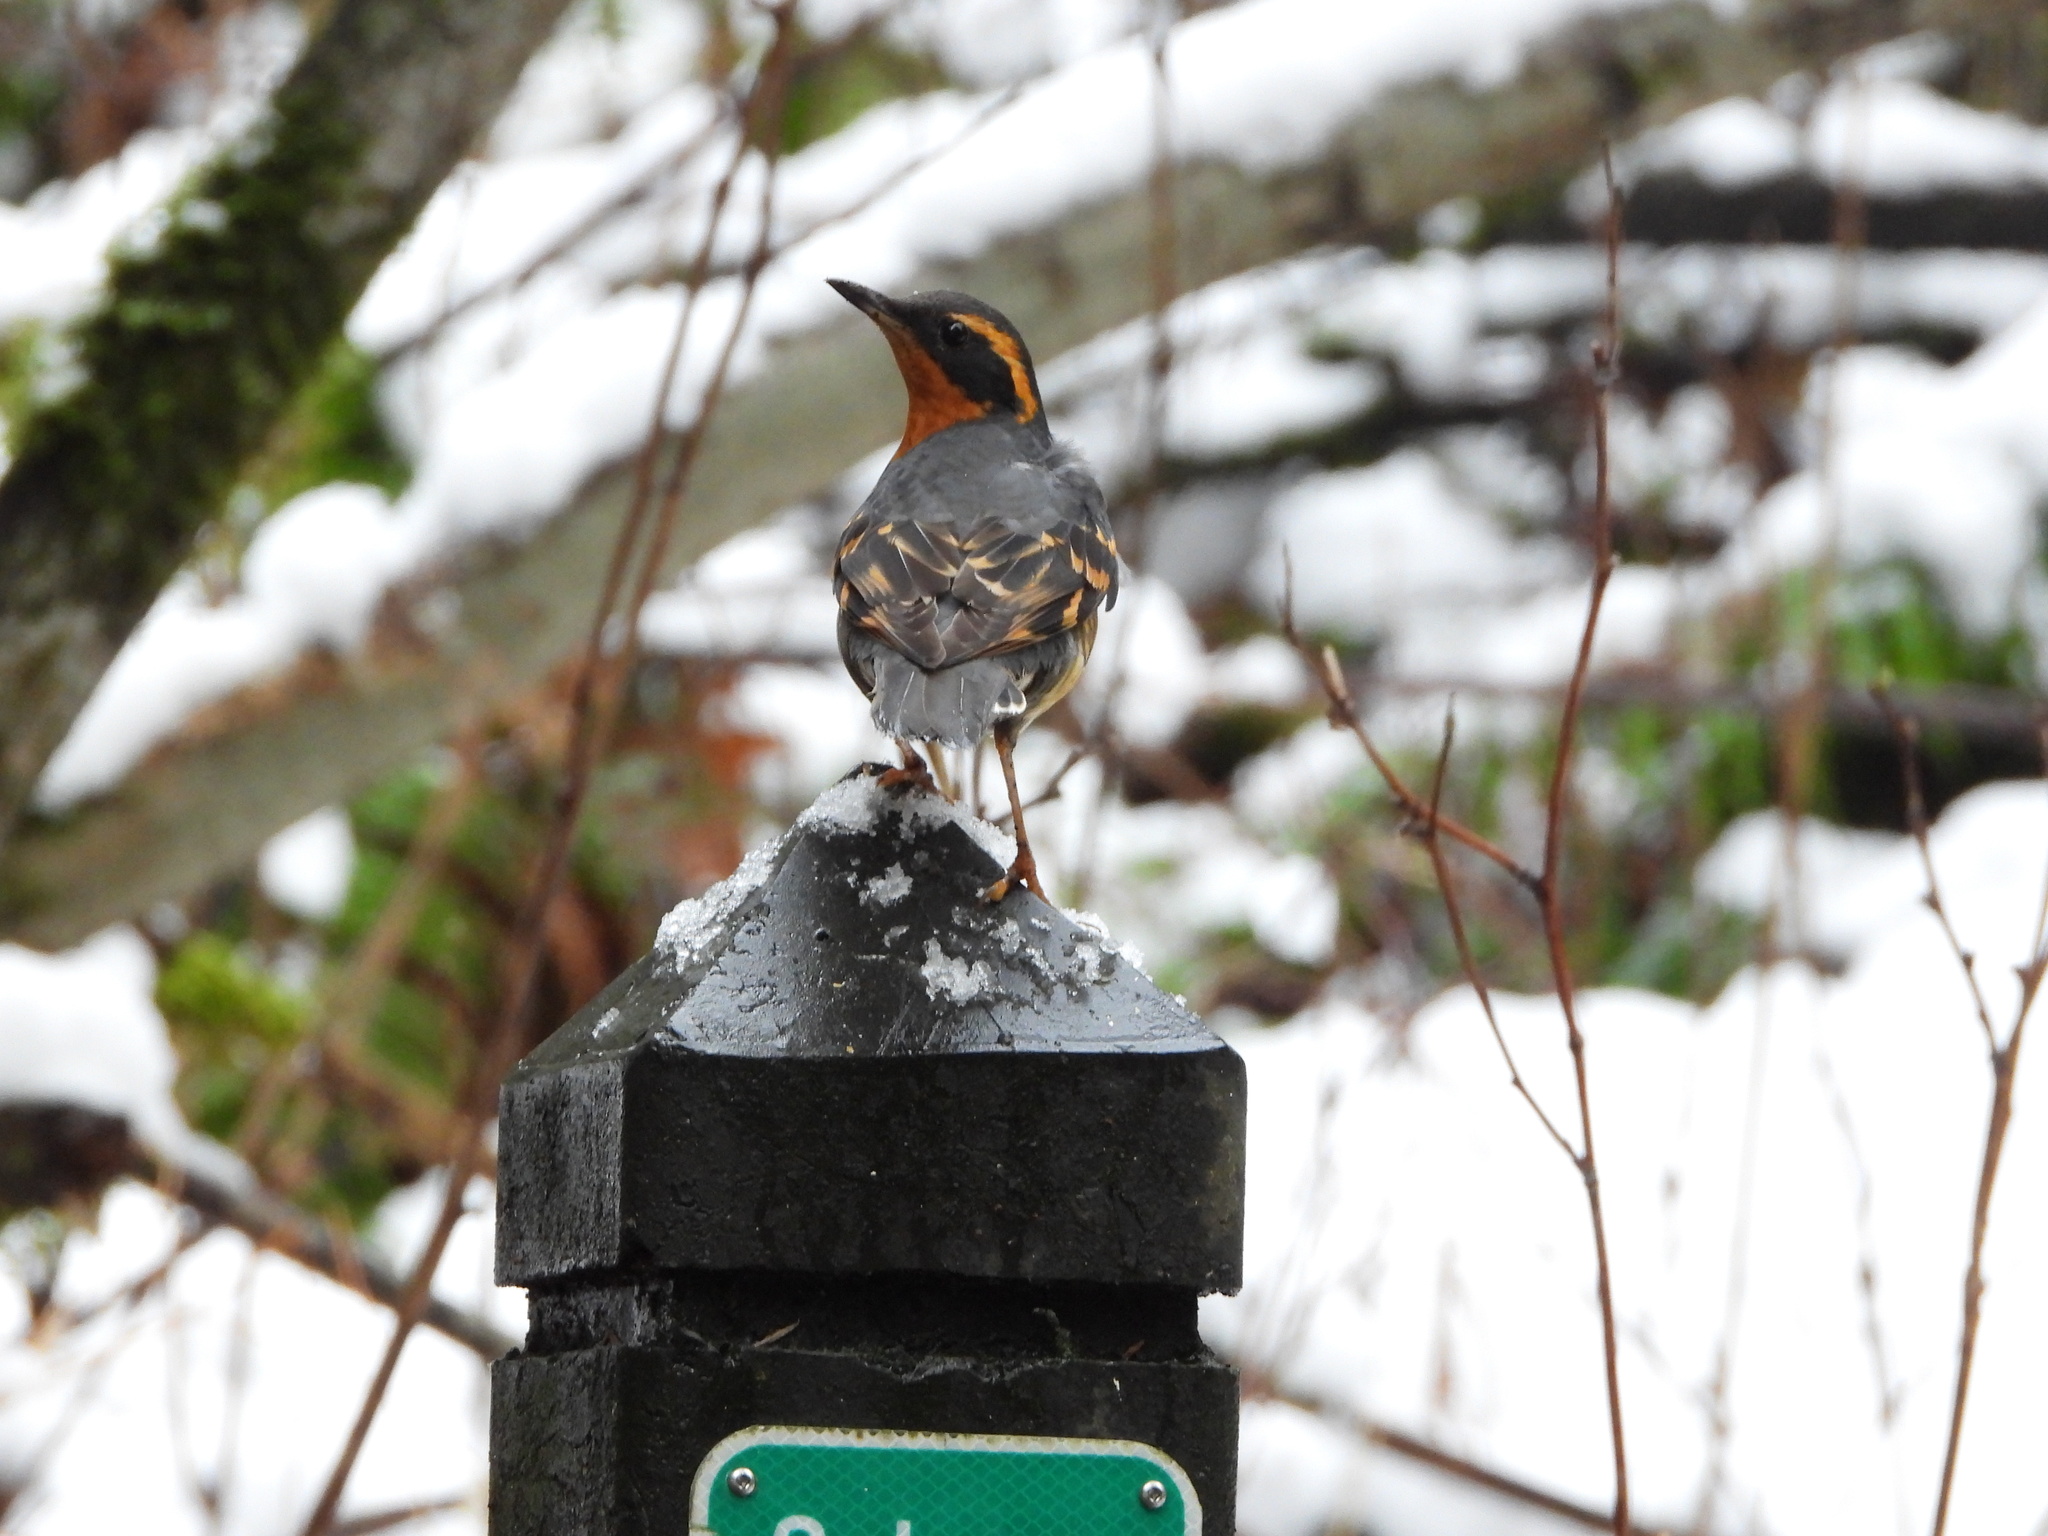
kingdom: Animalia
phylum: Chordata
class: Aves
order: Passeriformes
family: Turdidae
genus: Ixoreus
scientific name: Ixoreus naevius
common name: Varied thrush
